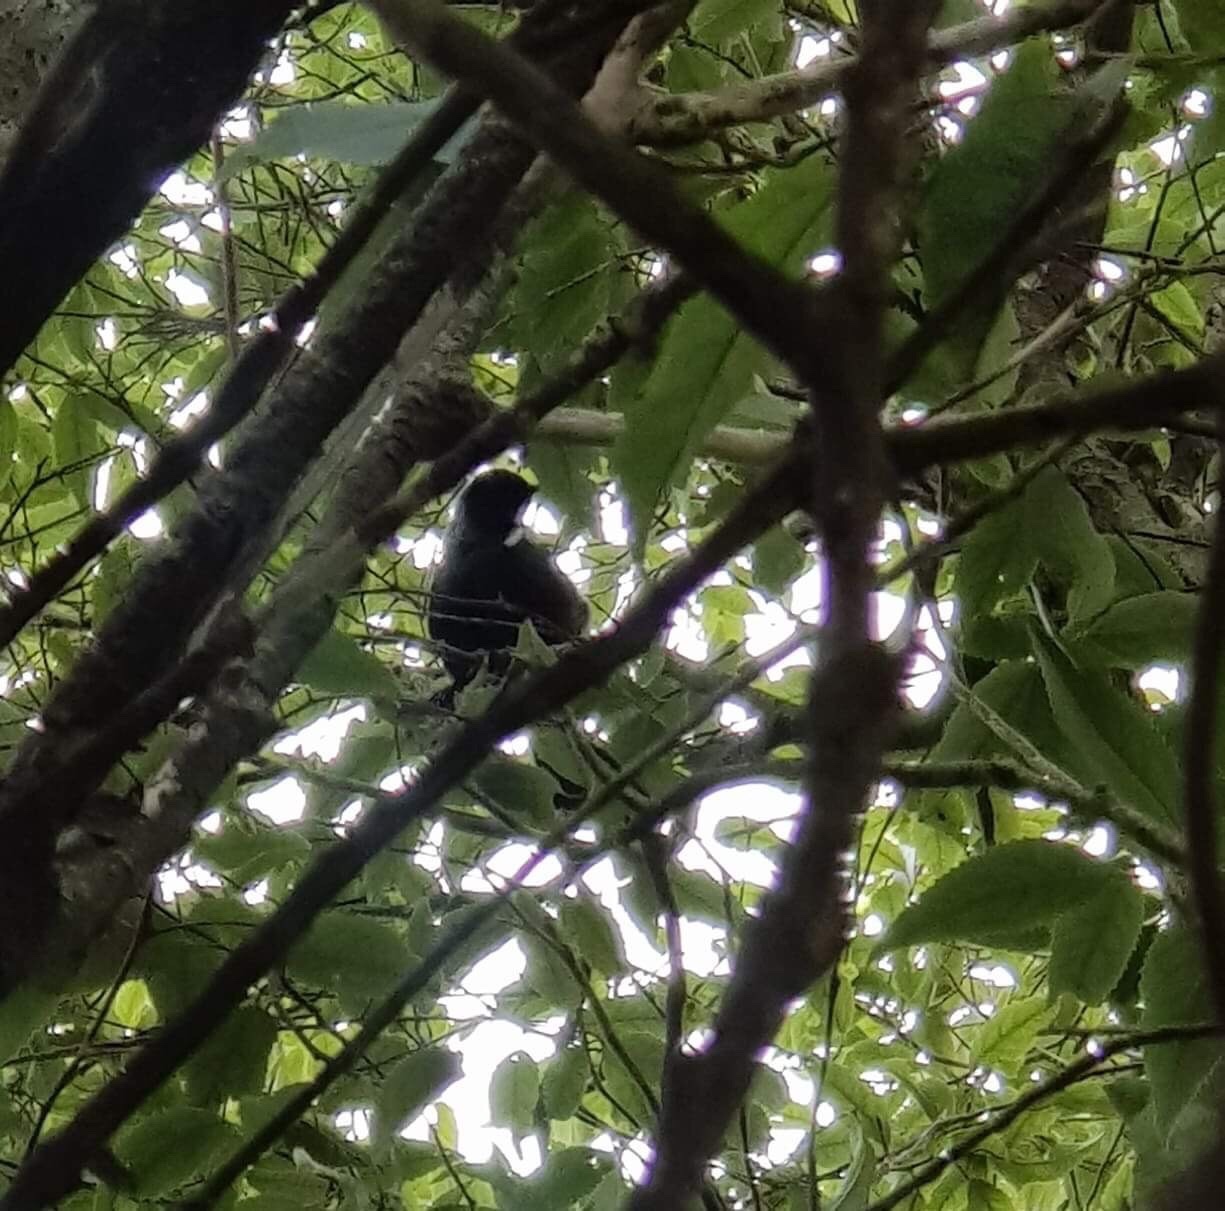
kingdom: Animalia
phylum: Chordata
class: Aves
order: Passeriformes
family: Meliphagidae
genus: Prosthemadera
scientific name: Prosthemadera novaeseelandiae
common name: Tui
